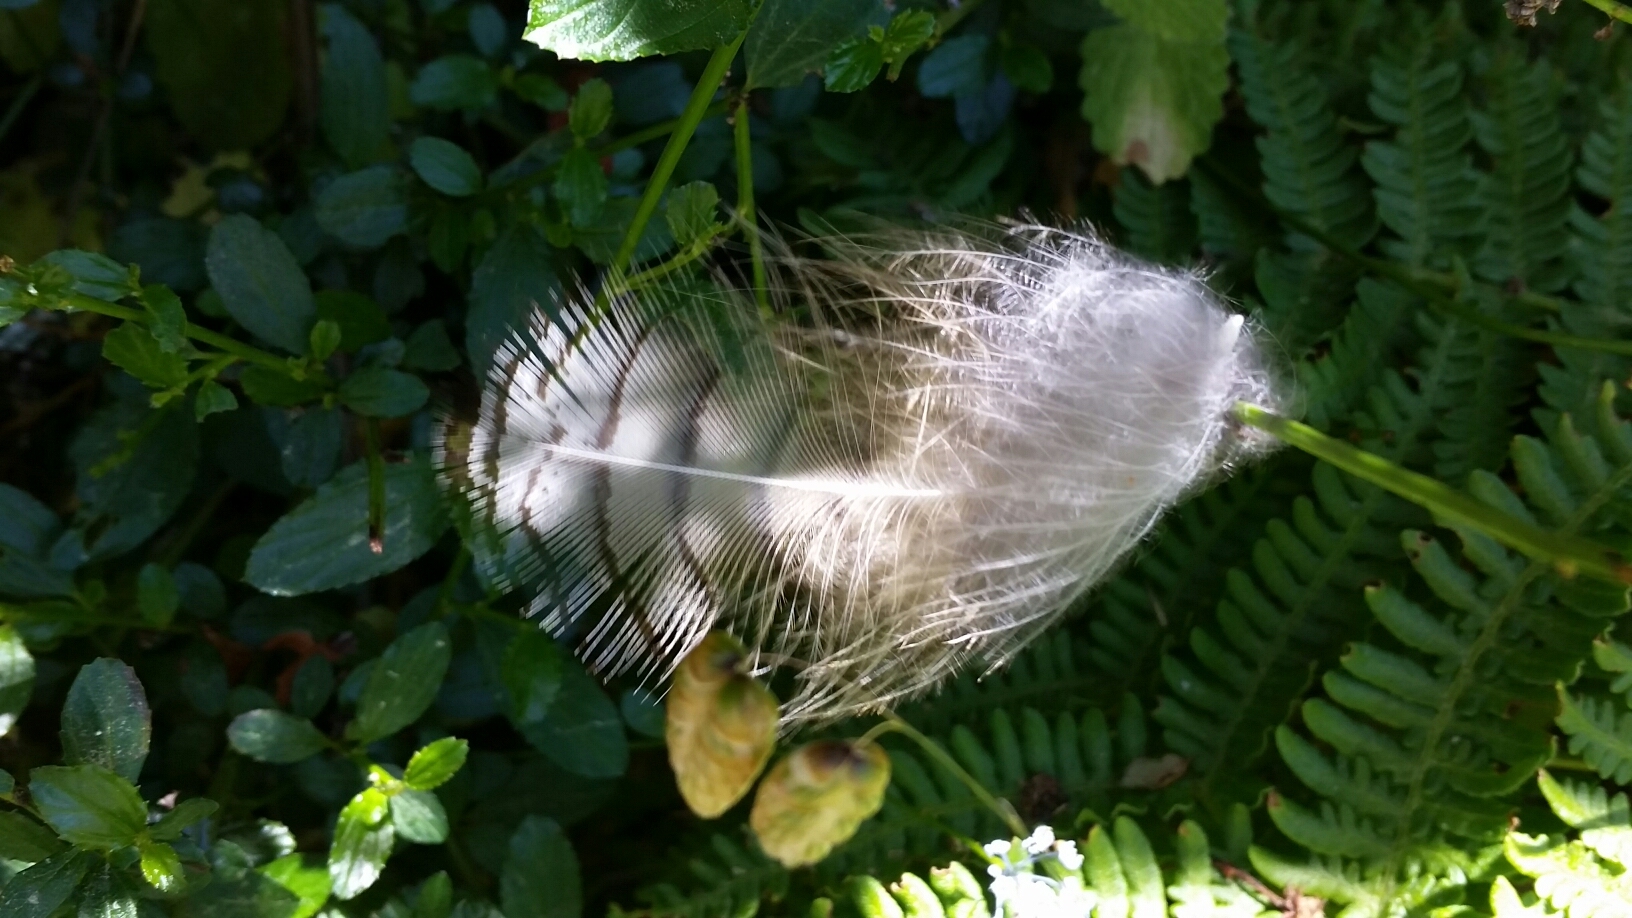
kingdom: Animalia
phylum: Chordata
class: Aves
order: Strigiformes
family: Strigidae
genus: Bubo
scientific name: Bubo virginianus
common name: Great horned owl
